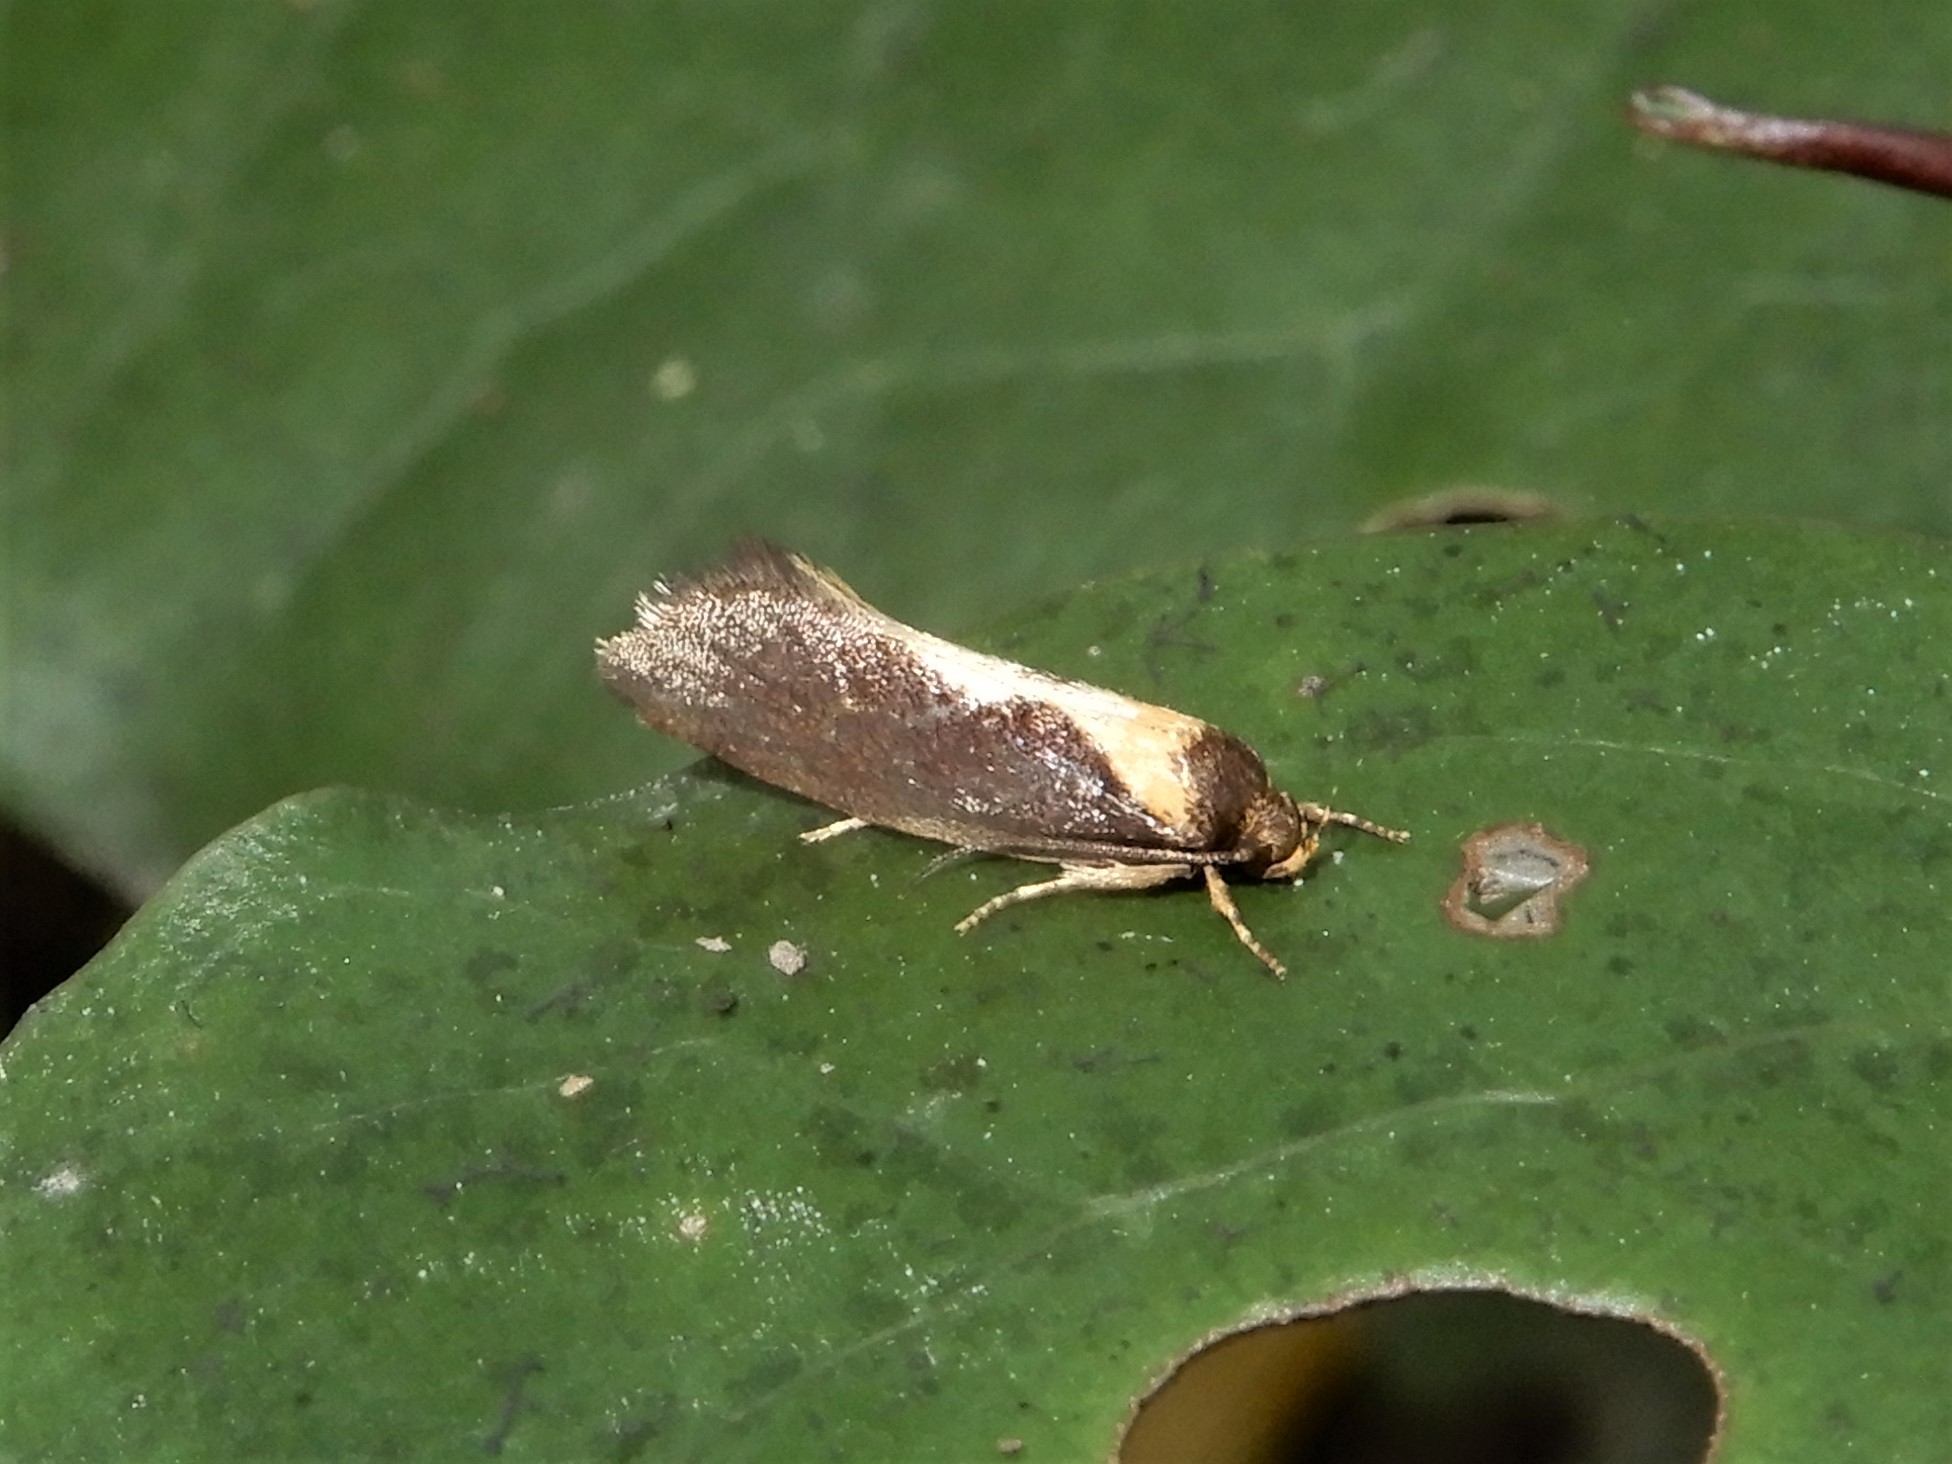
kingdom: Animalia
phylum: Arthropoda
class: Insecta
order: Lepidoptera
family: Oecophoridae
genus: Tingena
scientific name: Tingena basella
